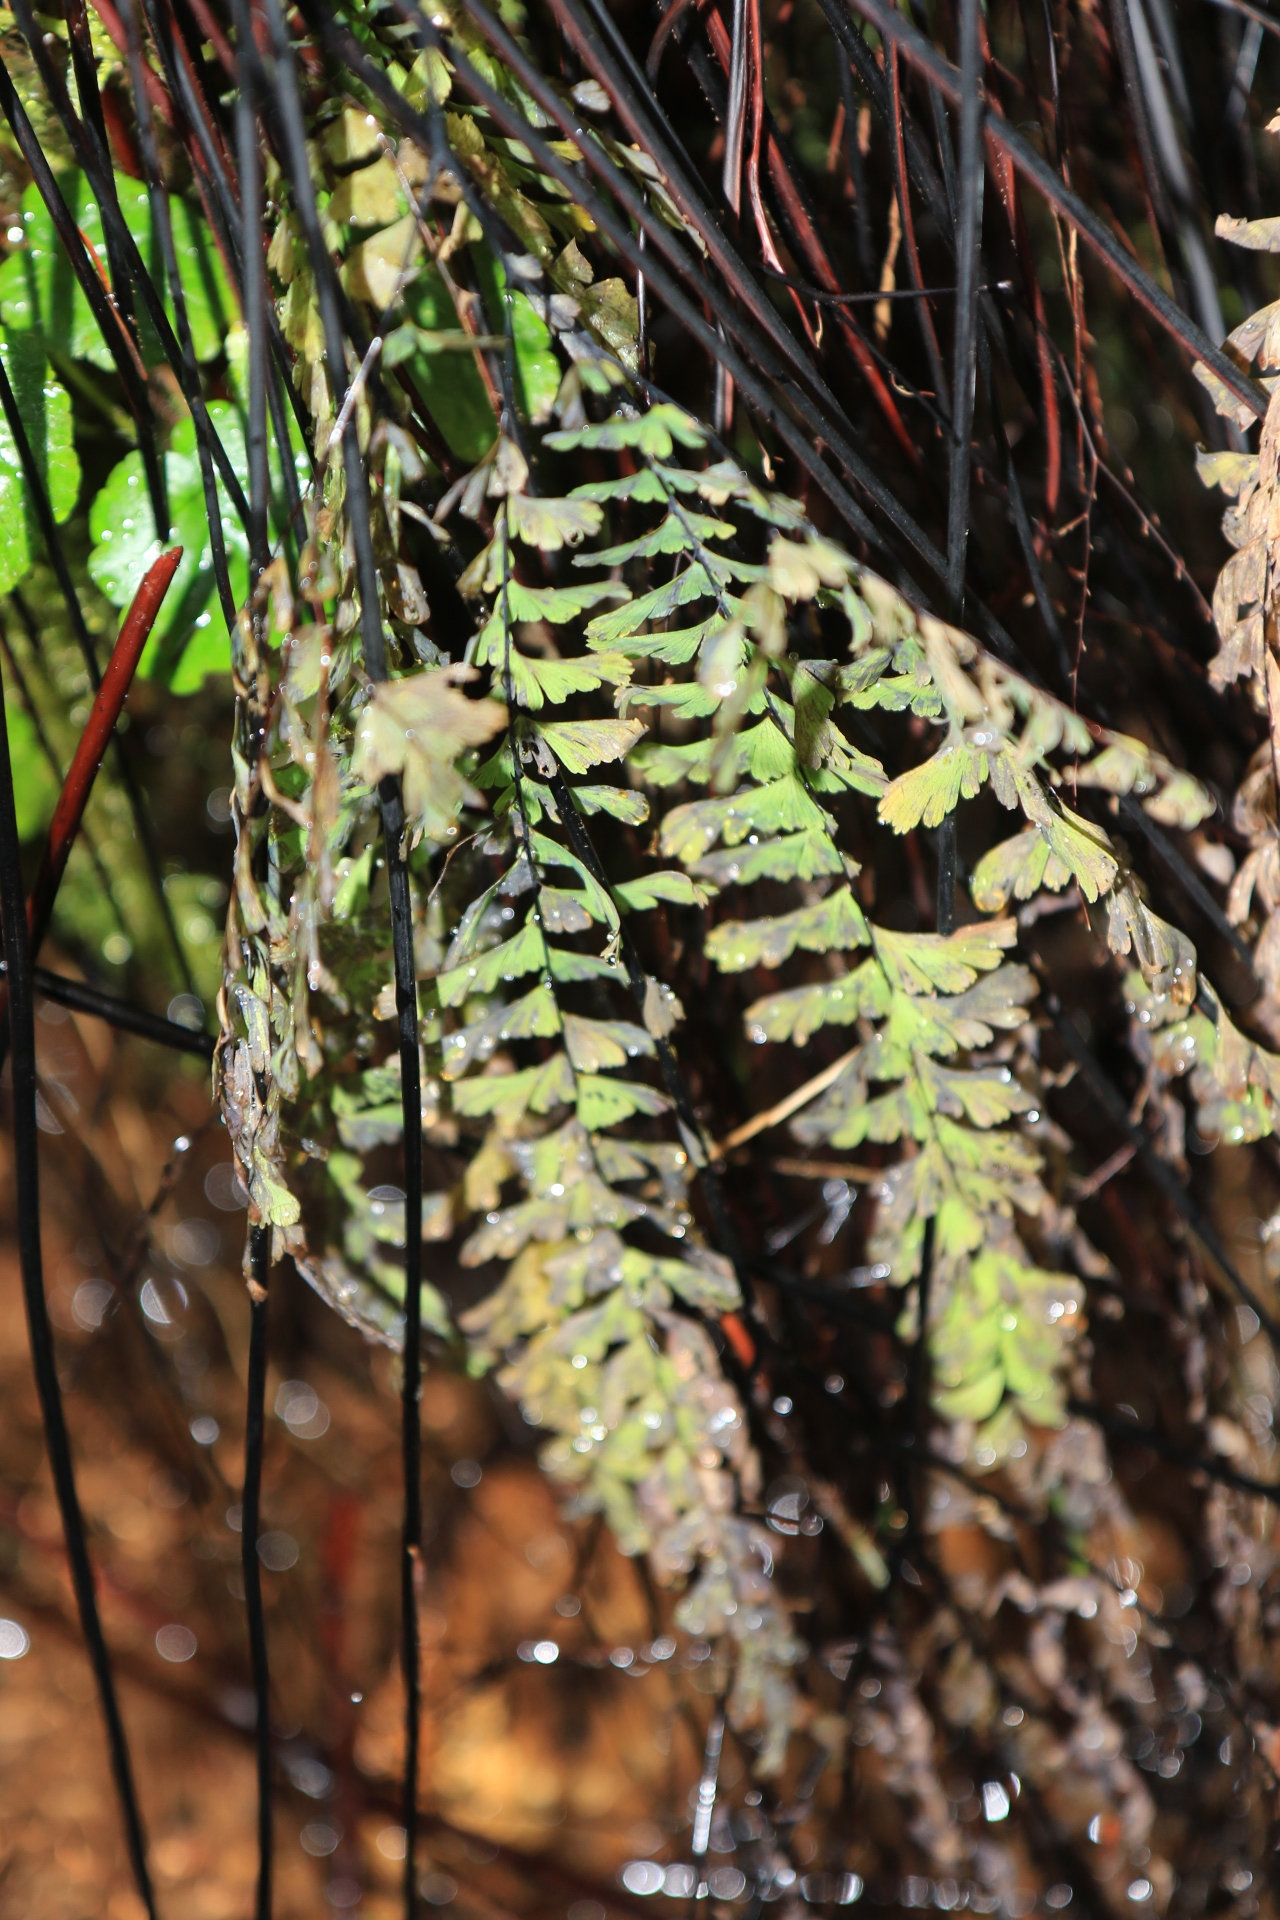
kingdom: Plantae
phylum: Tracheophyta
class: Polypodiopsida
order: Polypodiales
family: Pteridaceae
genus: Adiantum
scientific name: Adiantum aleuticum
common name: Aleutian maidenhair fern
